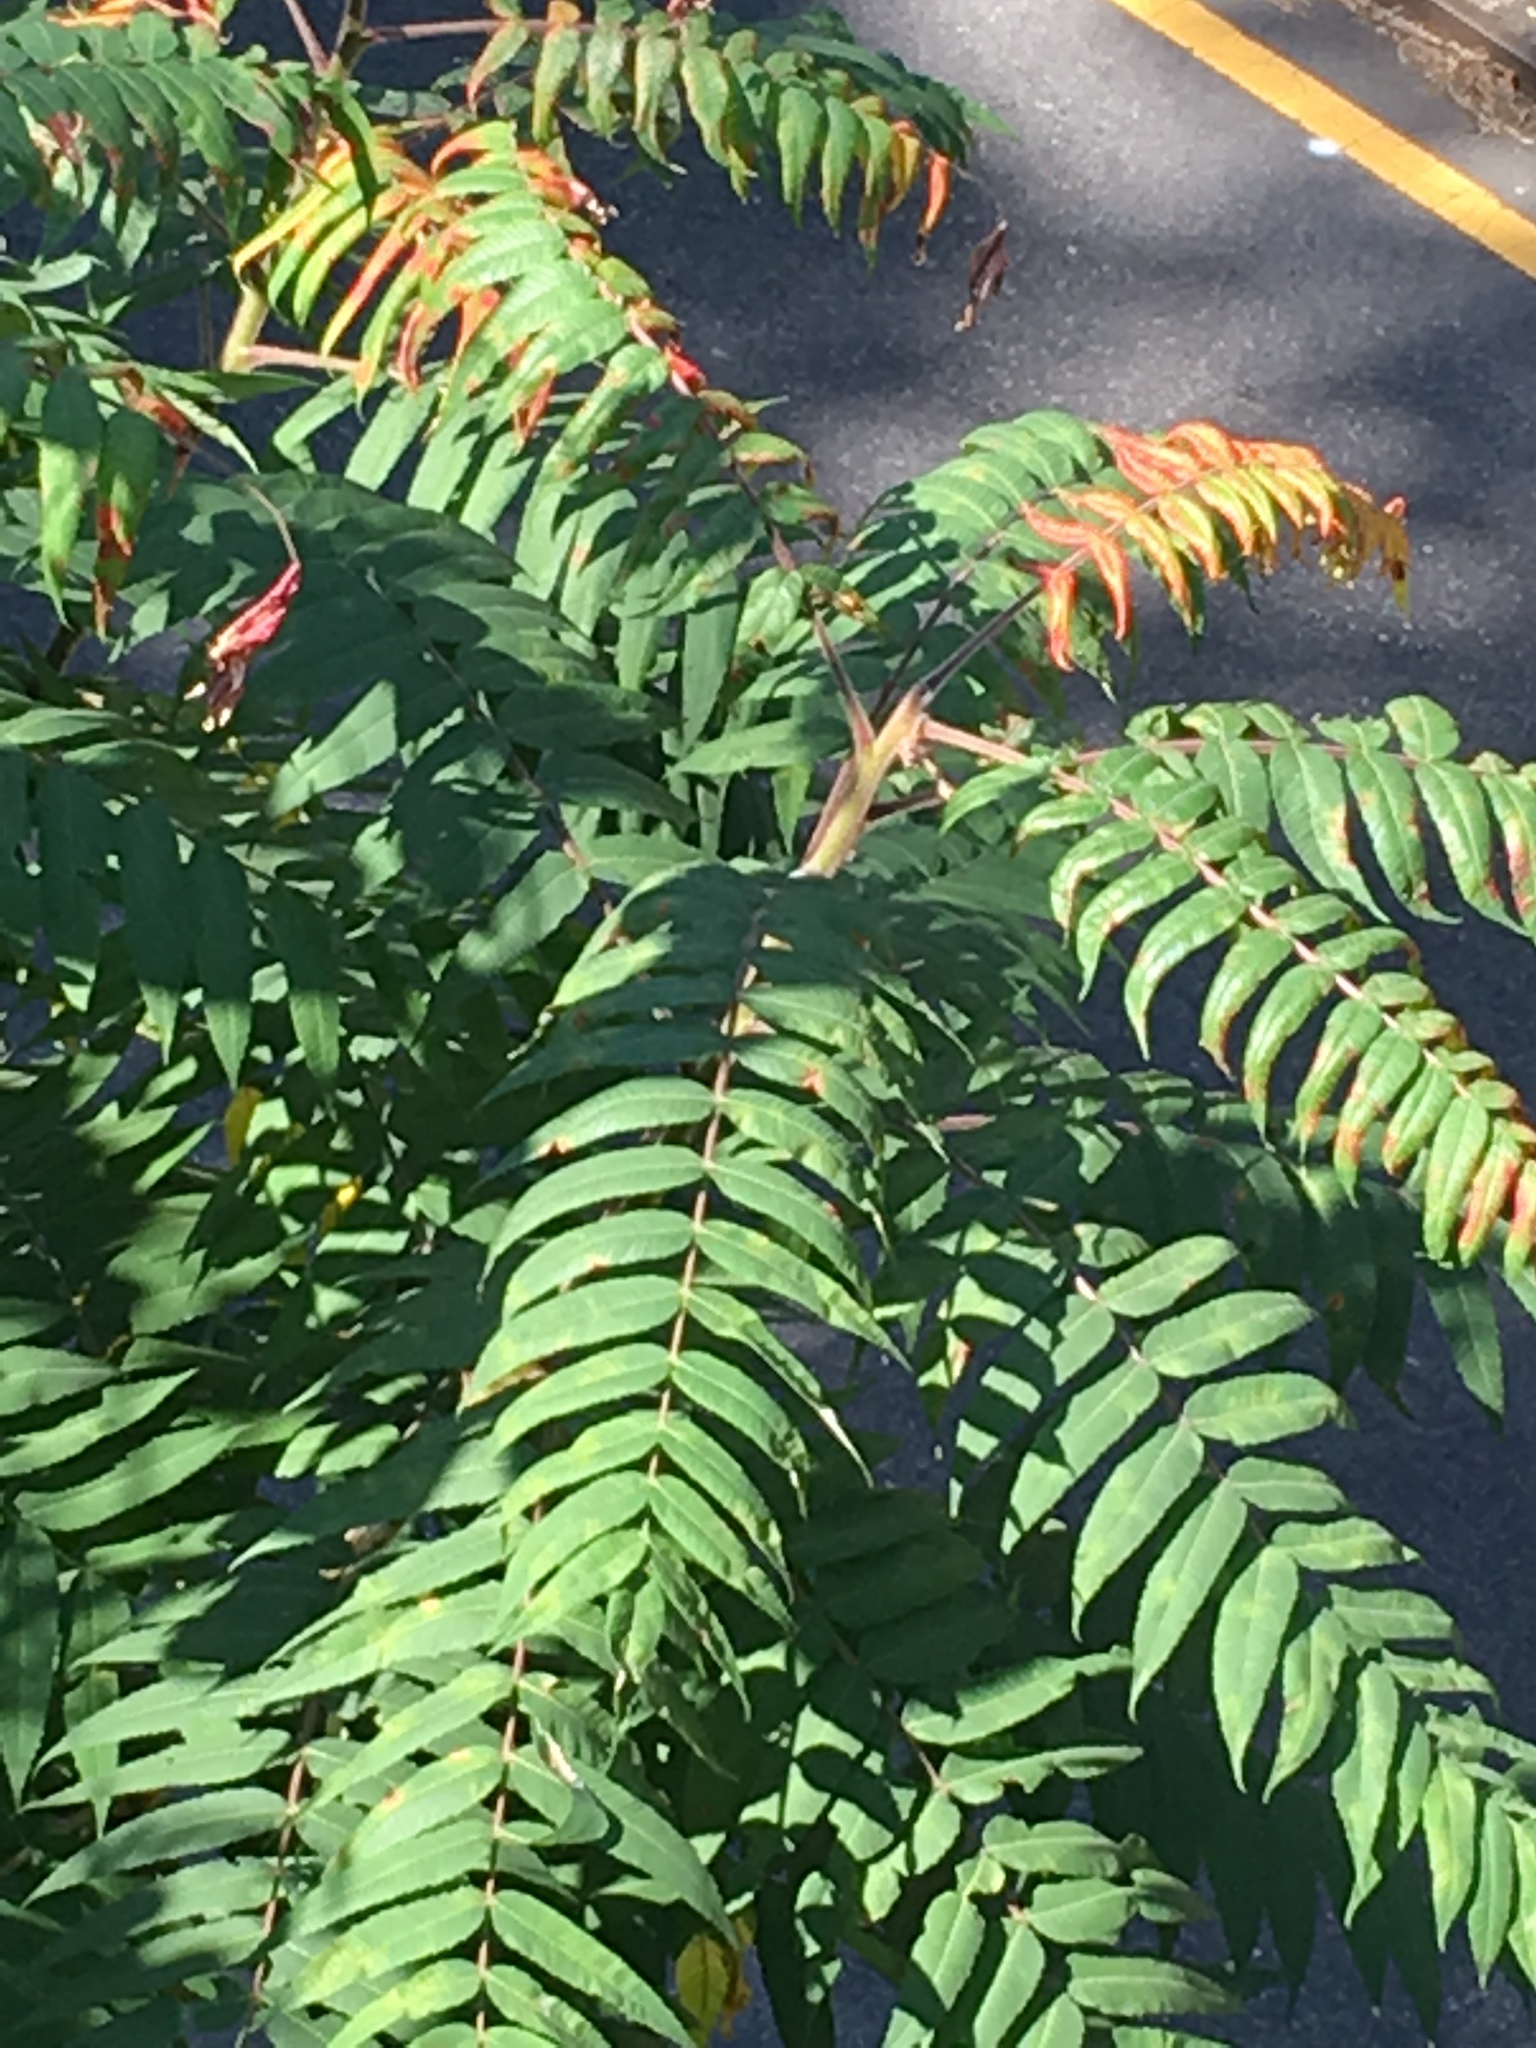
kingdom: Plantae
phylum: Tracheophyta
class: Magnoliopsida
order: Sapindales
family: Anacardiaceae
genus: Rhus
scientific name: Rhus typhina
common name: Staghorn sumac
